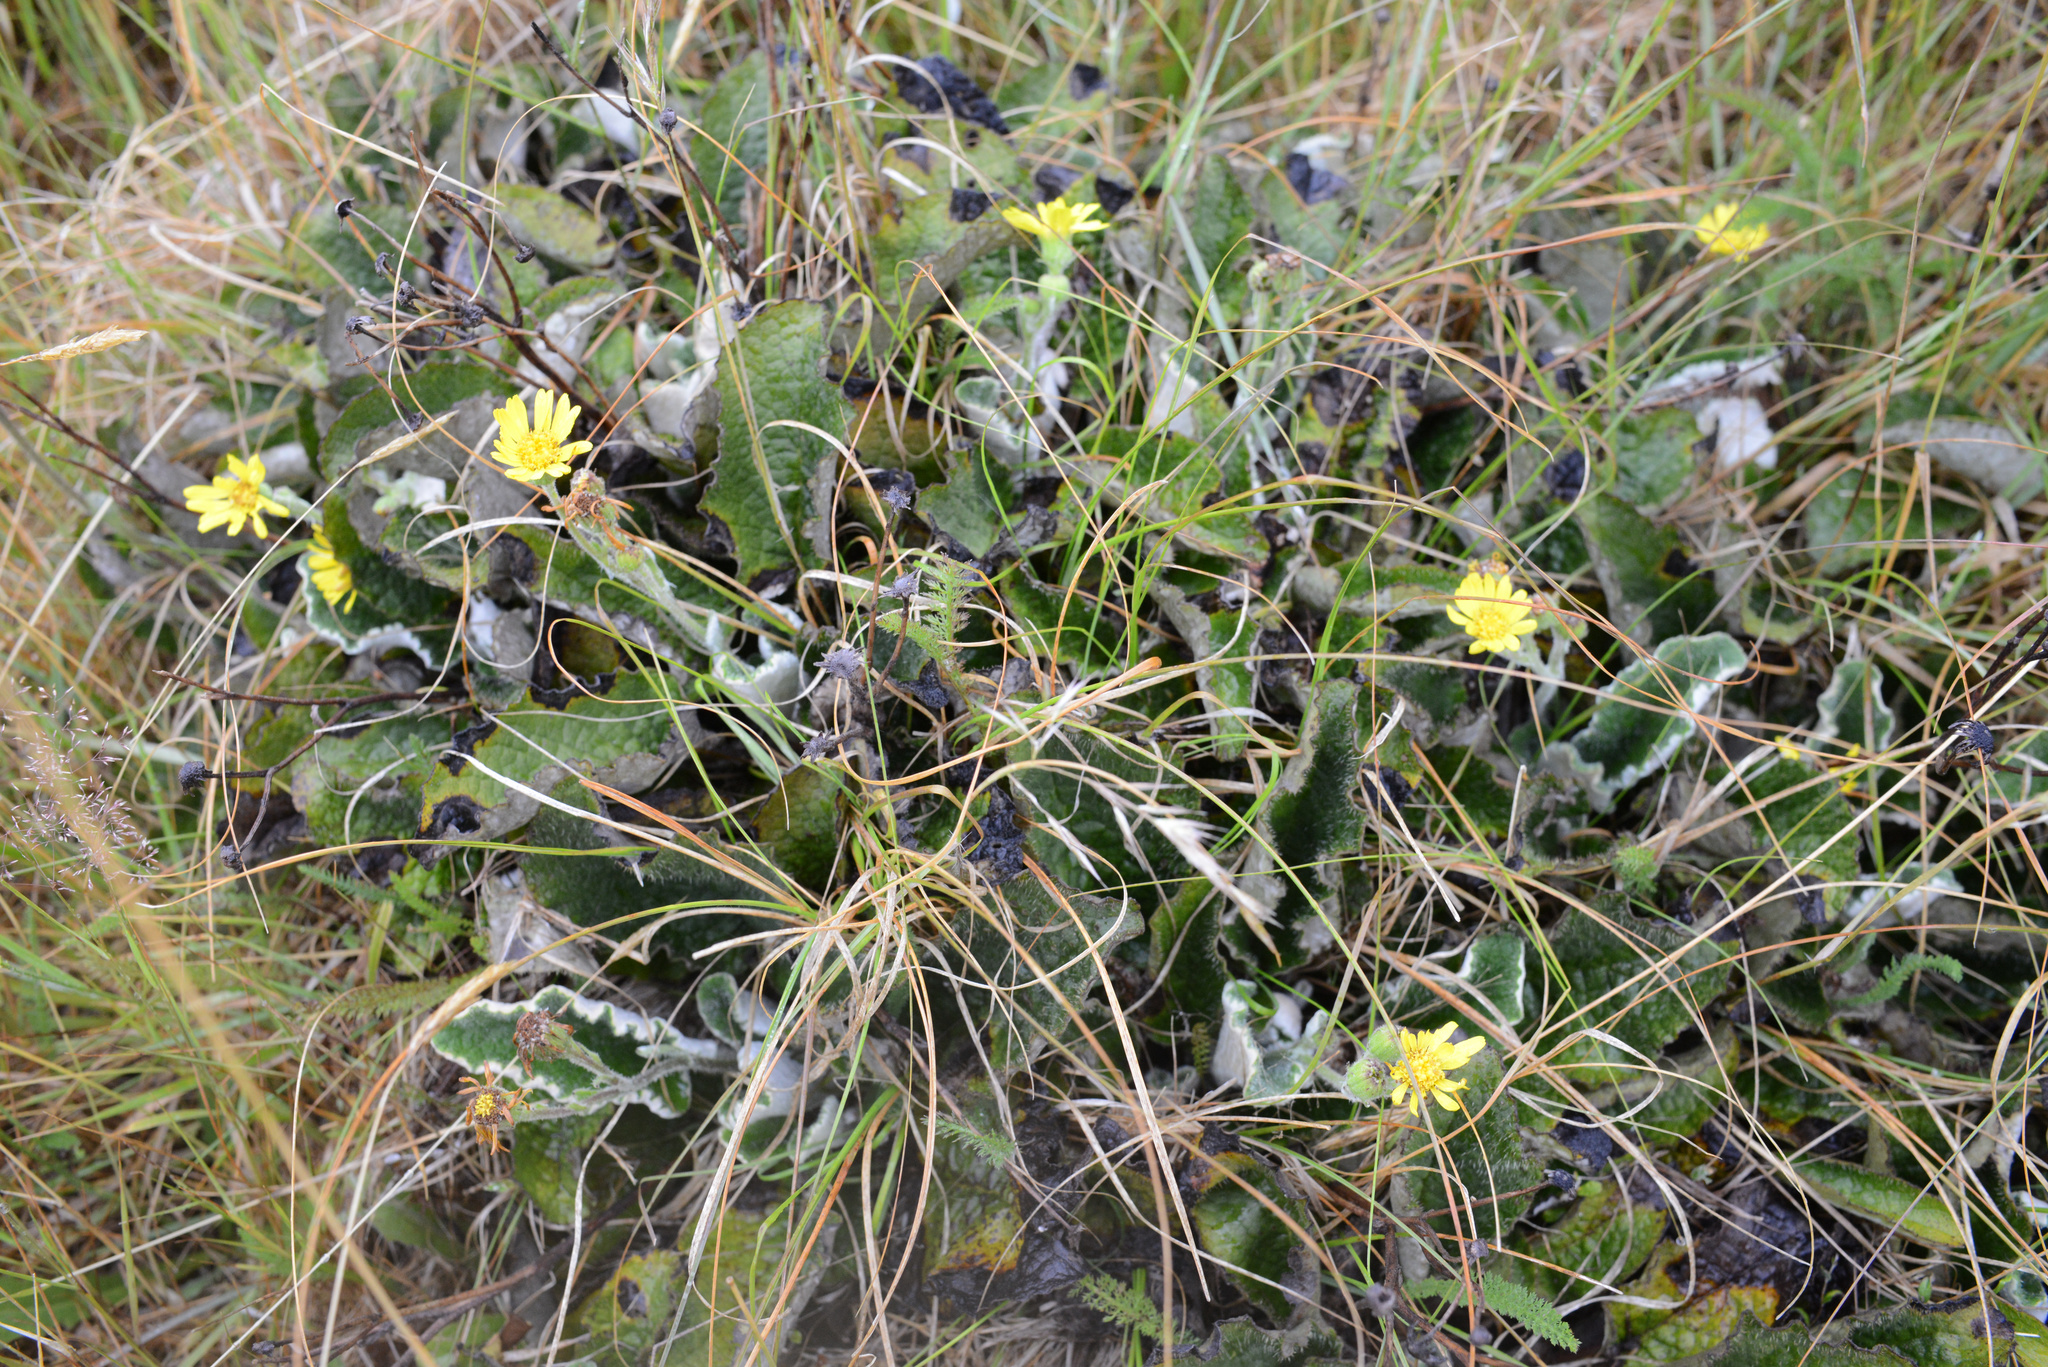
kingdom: Plantae
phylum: Tracheophyta
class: Magnoliopsida
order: Asterales
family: Asteraceae
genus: Brachyglottis
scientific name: Brachyglottis lagopus
